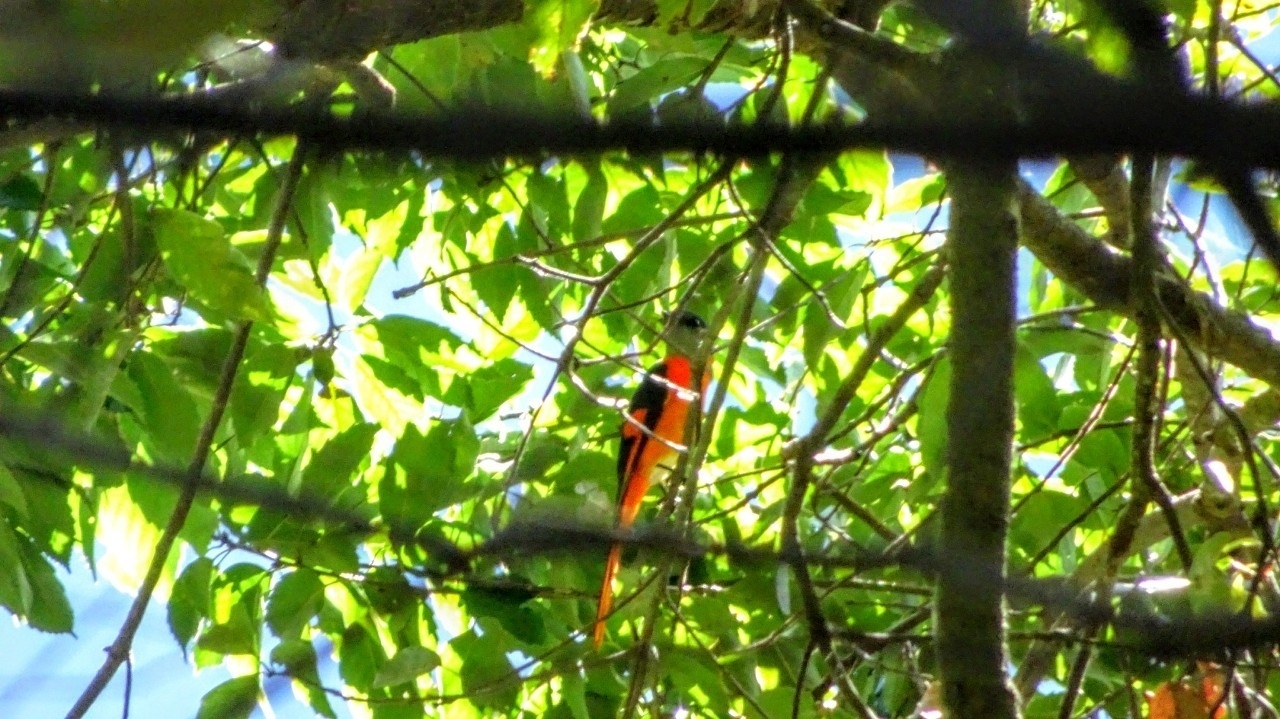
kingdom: Animalia
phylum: Chordata
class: Aves
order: Passeriformes
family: Campephagidae
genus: Pericrocotus
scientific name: Pericrocotus solaris
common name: Grey-chinned minivet
